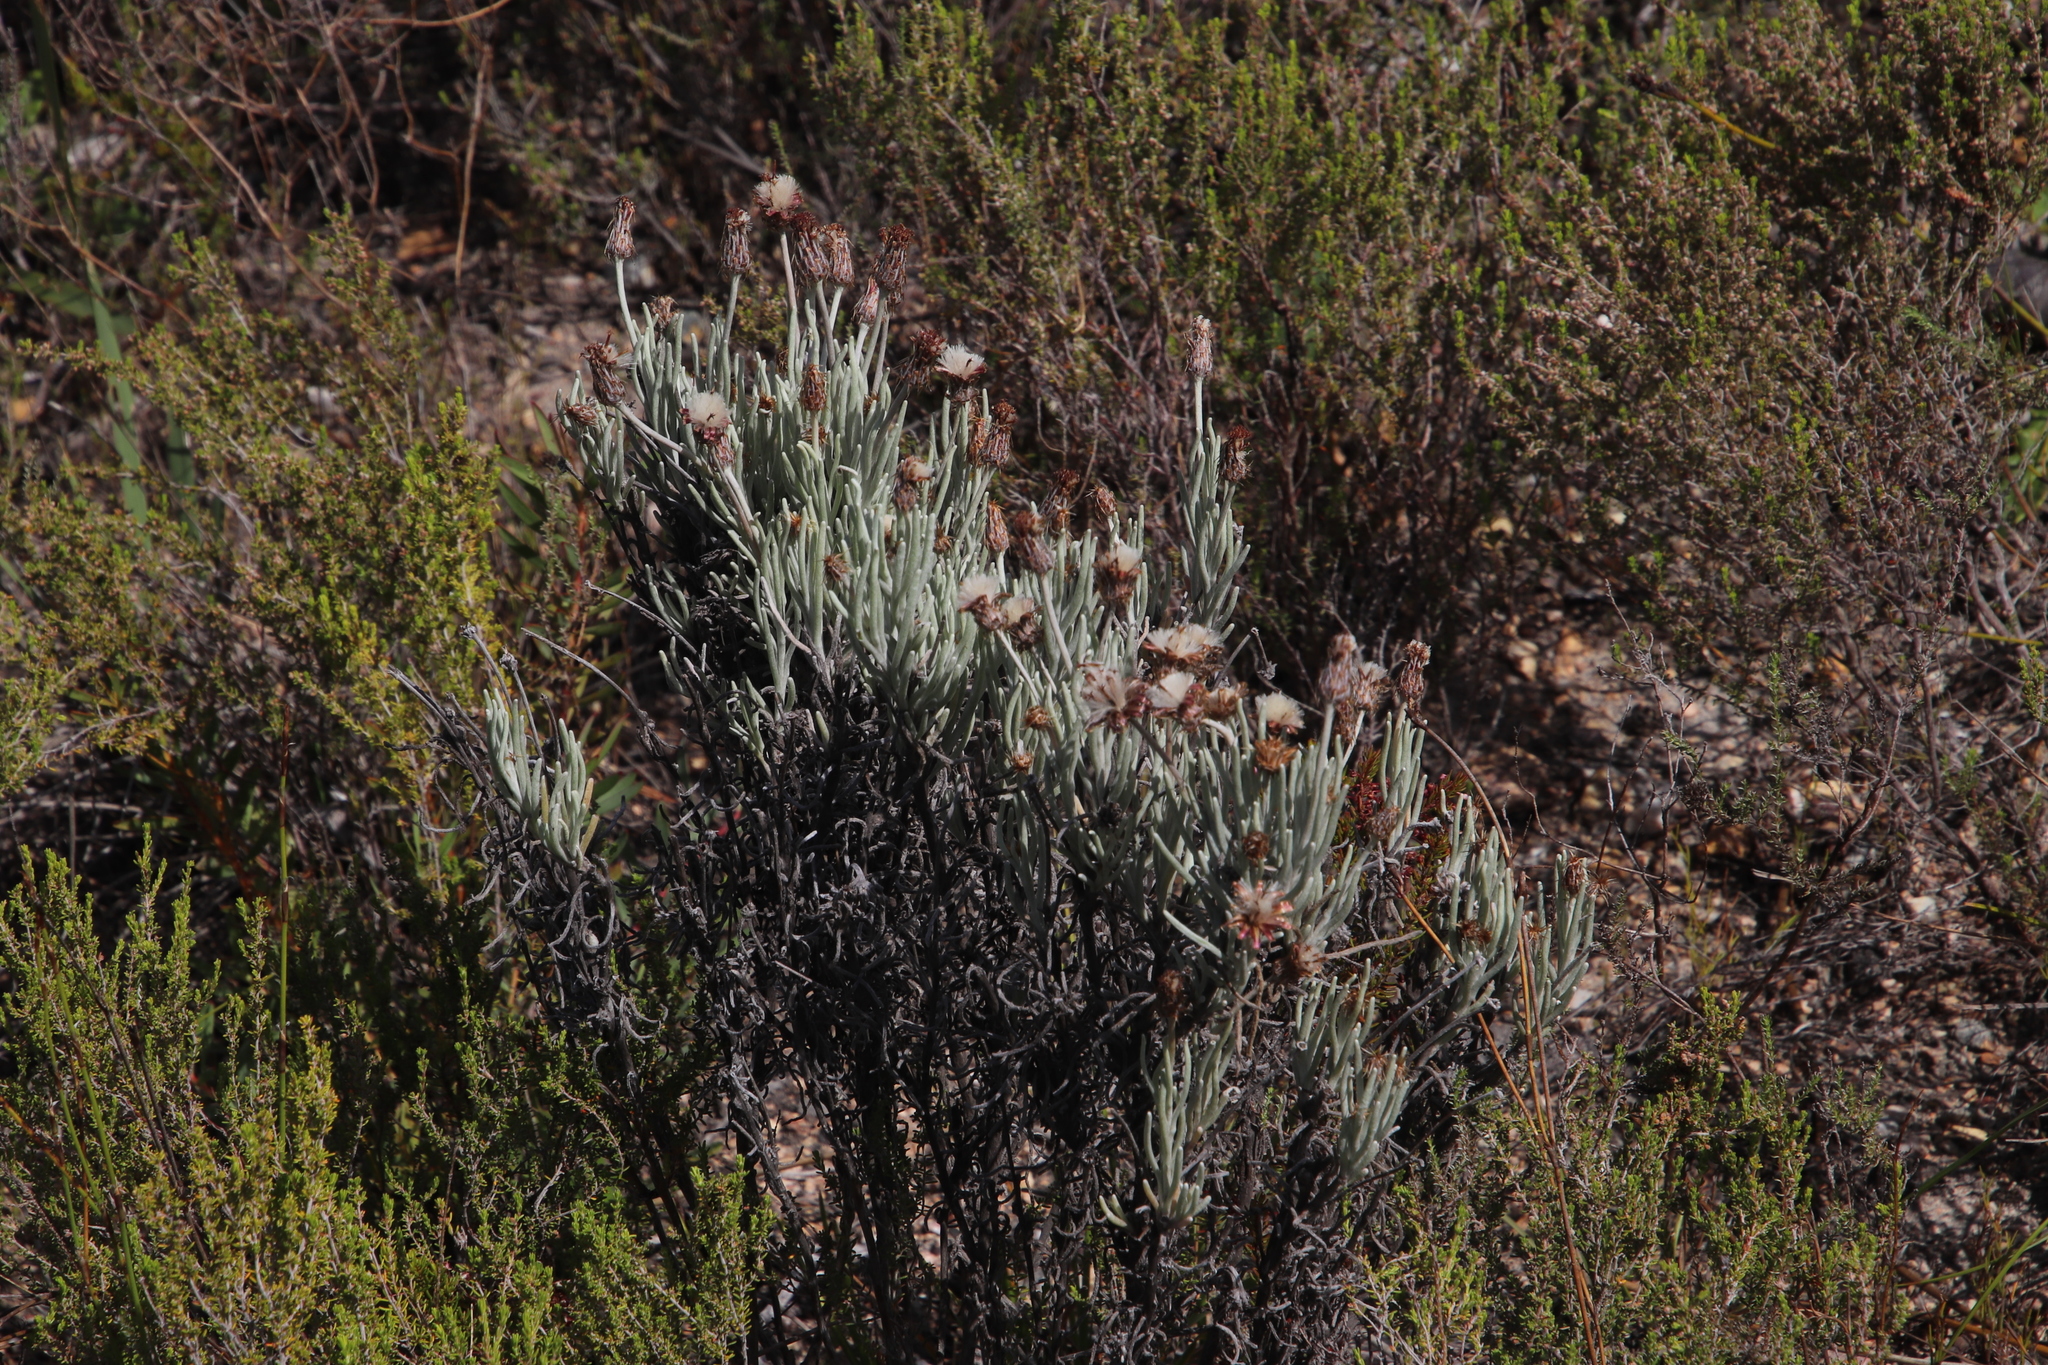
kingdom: Plantae
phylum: Tracheophyta
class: Magnoliopsida
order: Asterales
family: Asteraceae
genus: Syncarpha
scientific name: Syncarpha gnaphaloides
